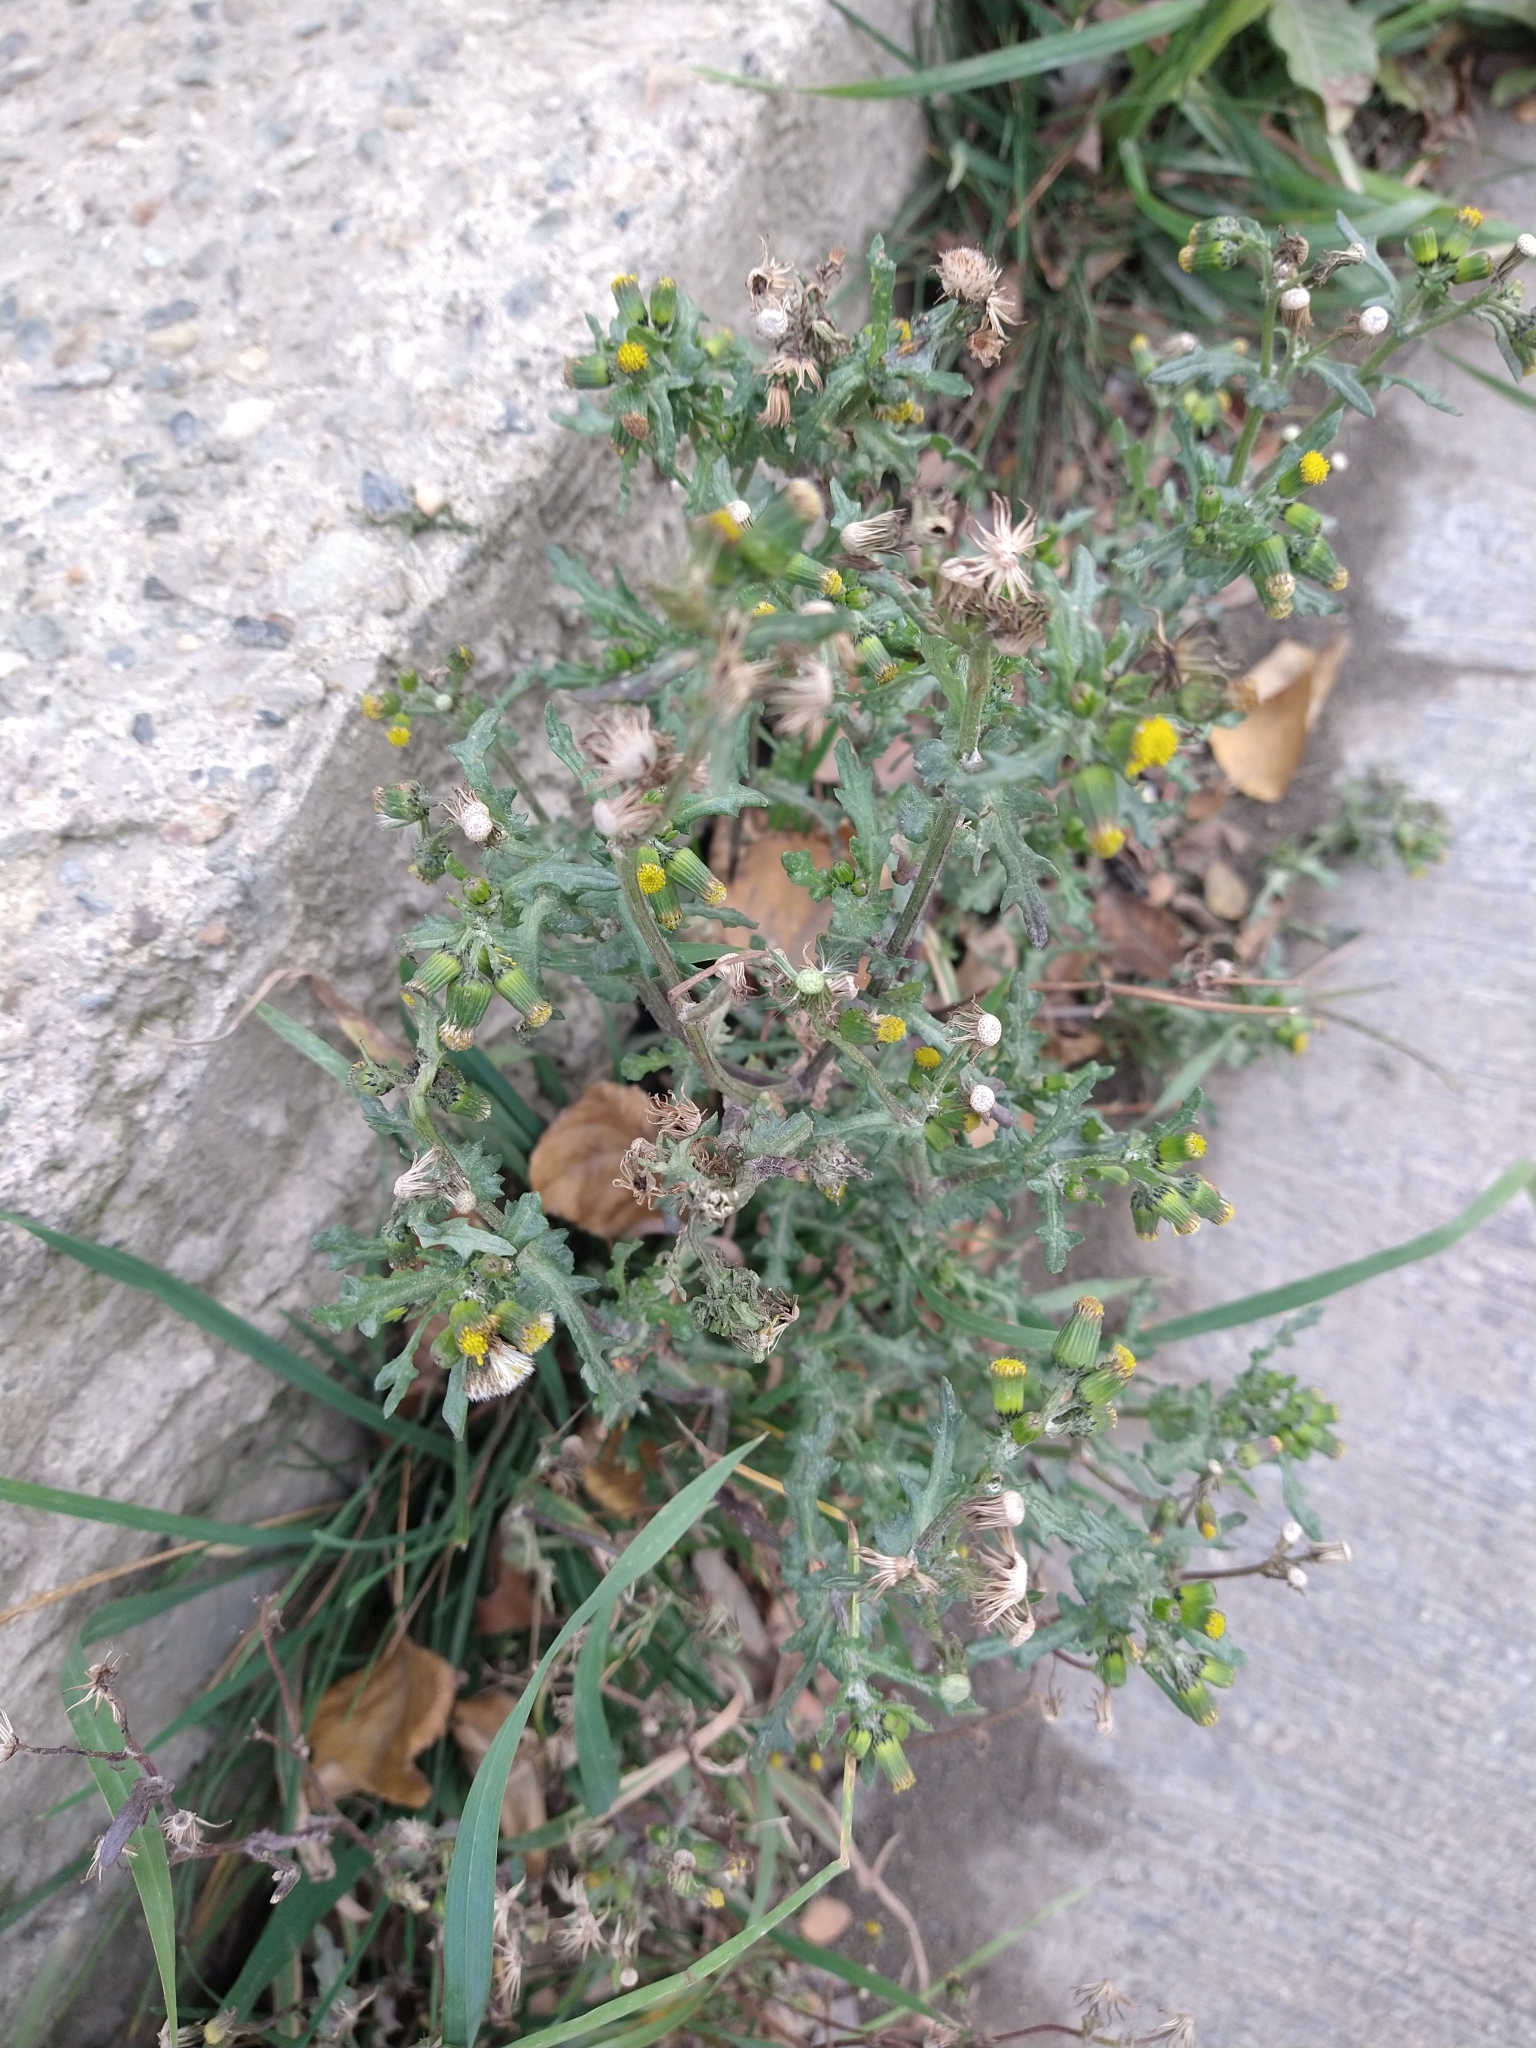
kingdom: Plantae
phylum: Tracheophyta
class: Magnoliopsida
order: Asterales
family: Asteraceae
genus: Senecio
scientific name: Senecio vulgaris
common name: Old-man-in-the-spring
